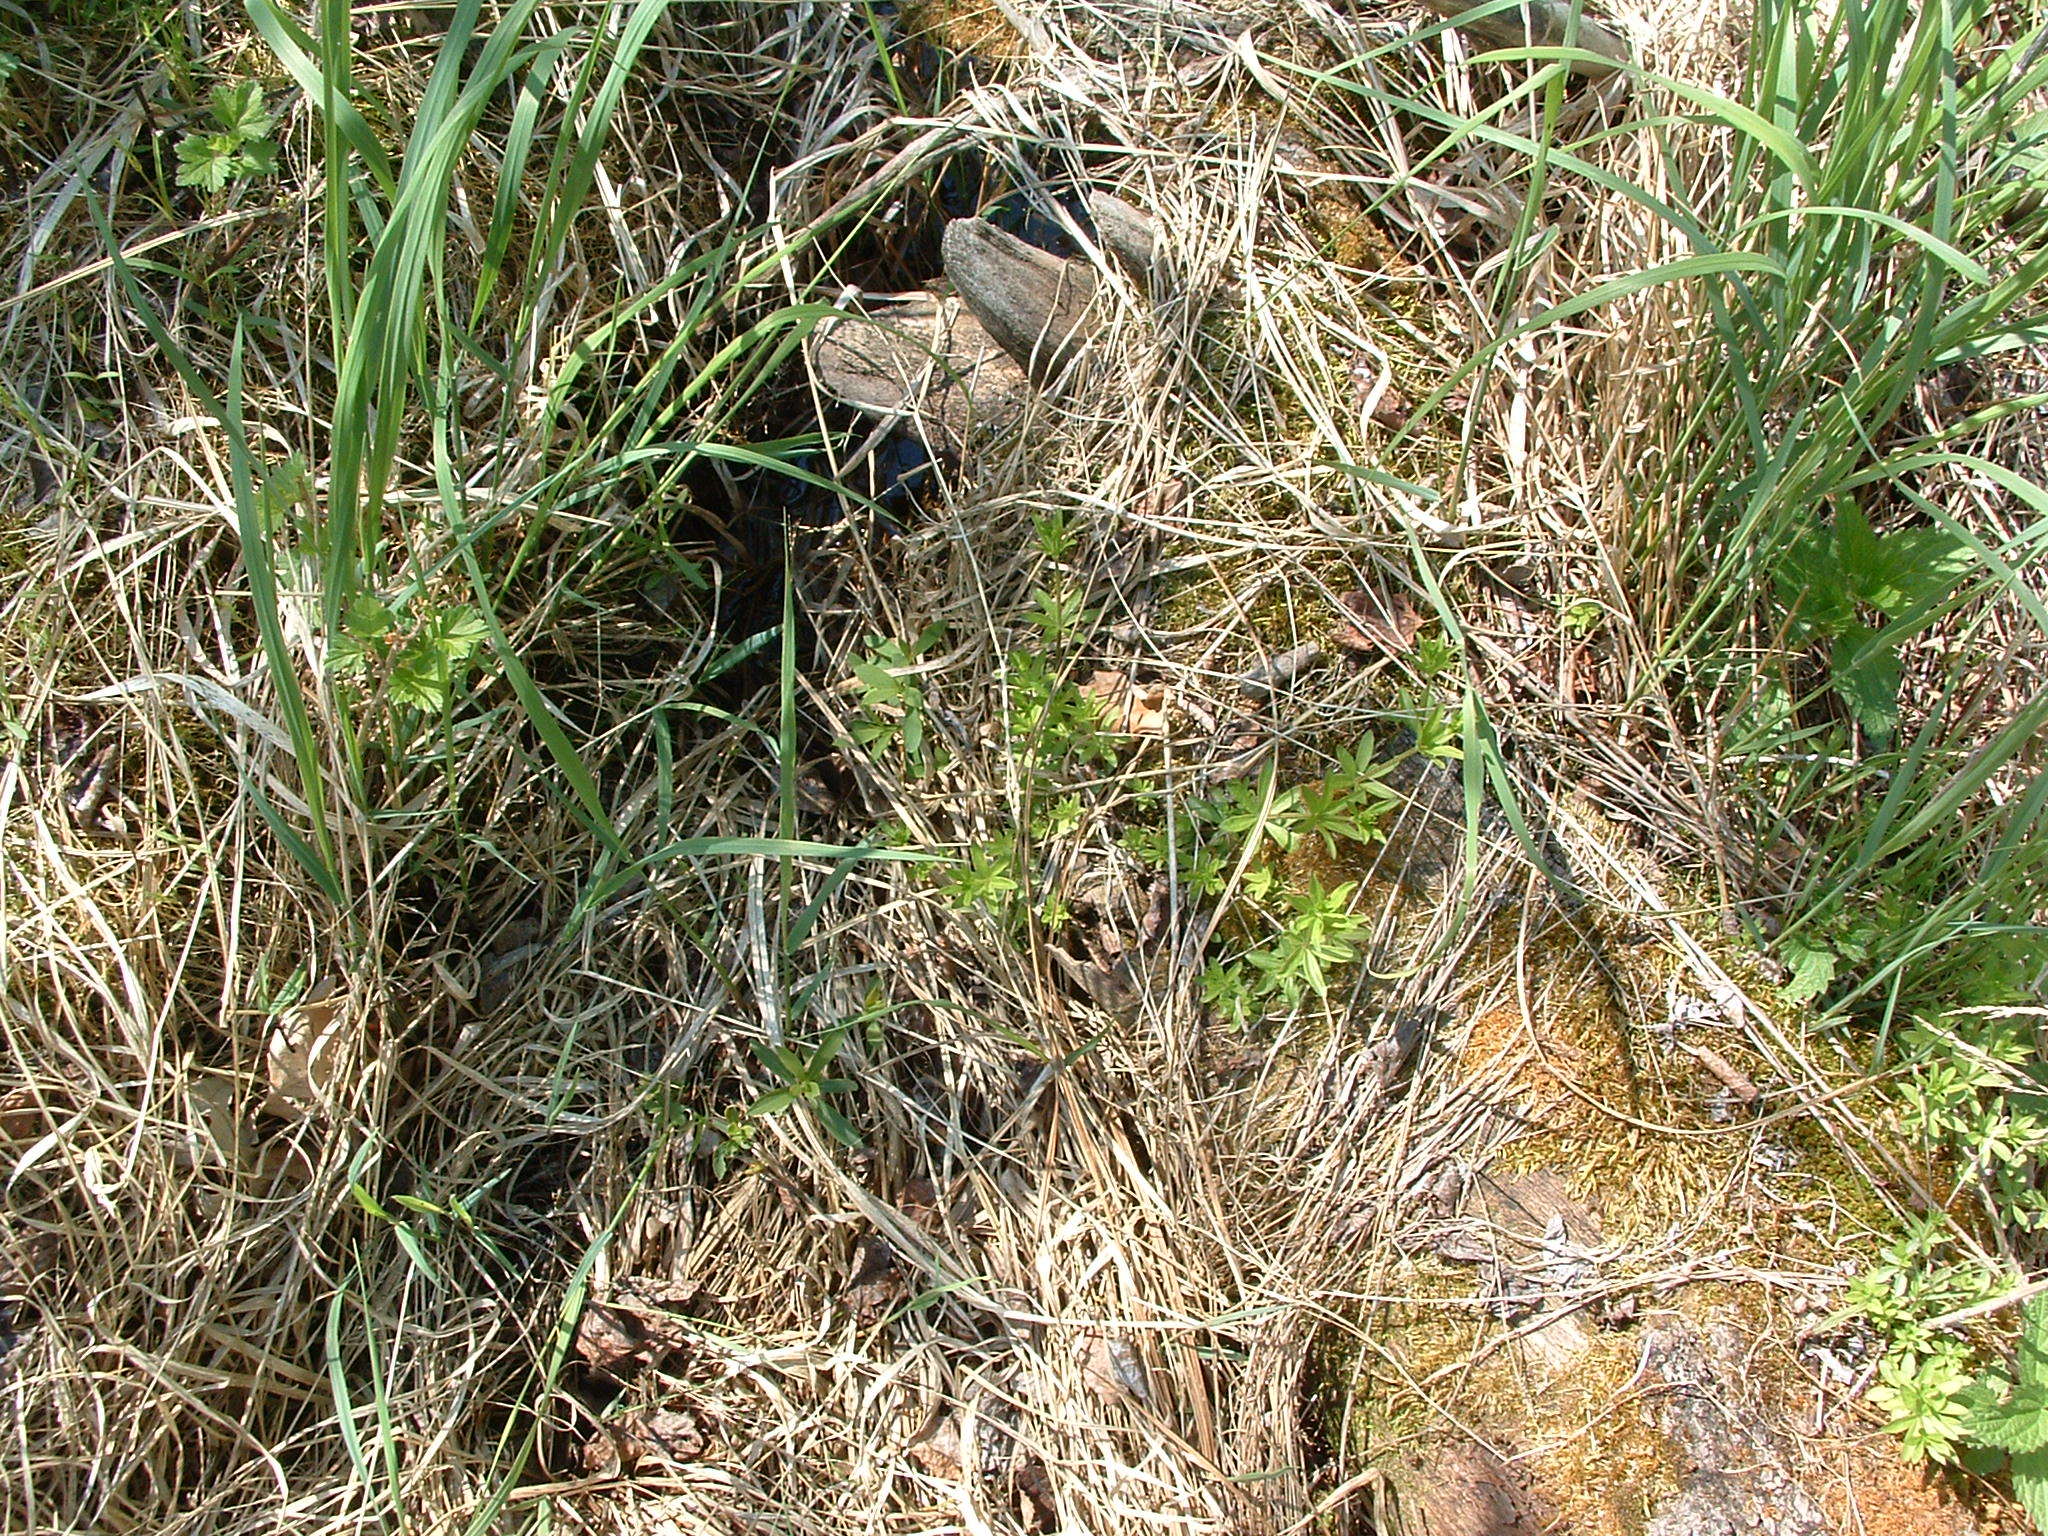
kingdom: Plantae
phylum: Tracheophyta
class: Magnoliopsida
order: Gentianales
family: Rubiaceae
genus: Galium
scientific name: Galium triflorum
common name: Fragrant bedstraw
